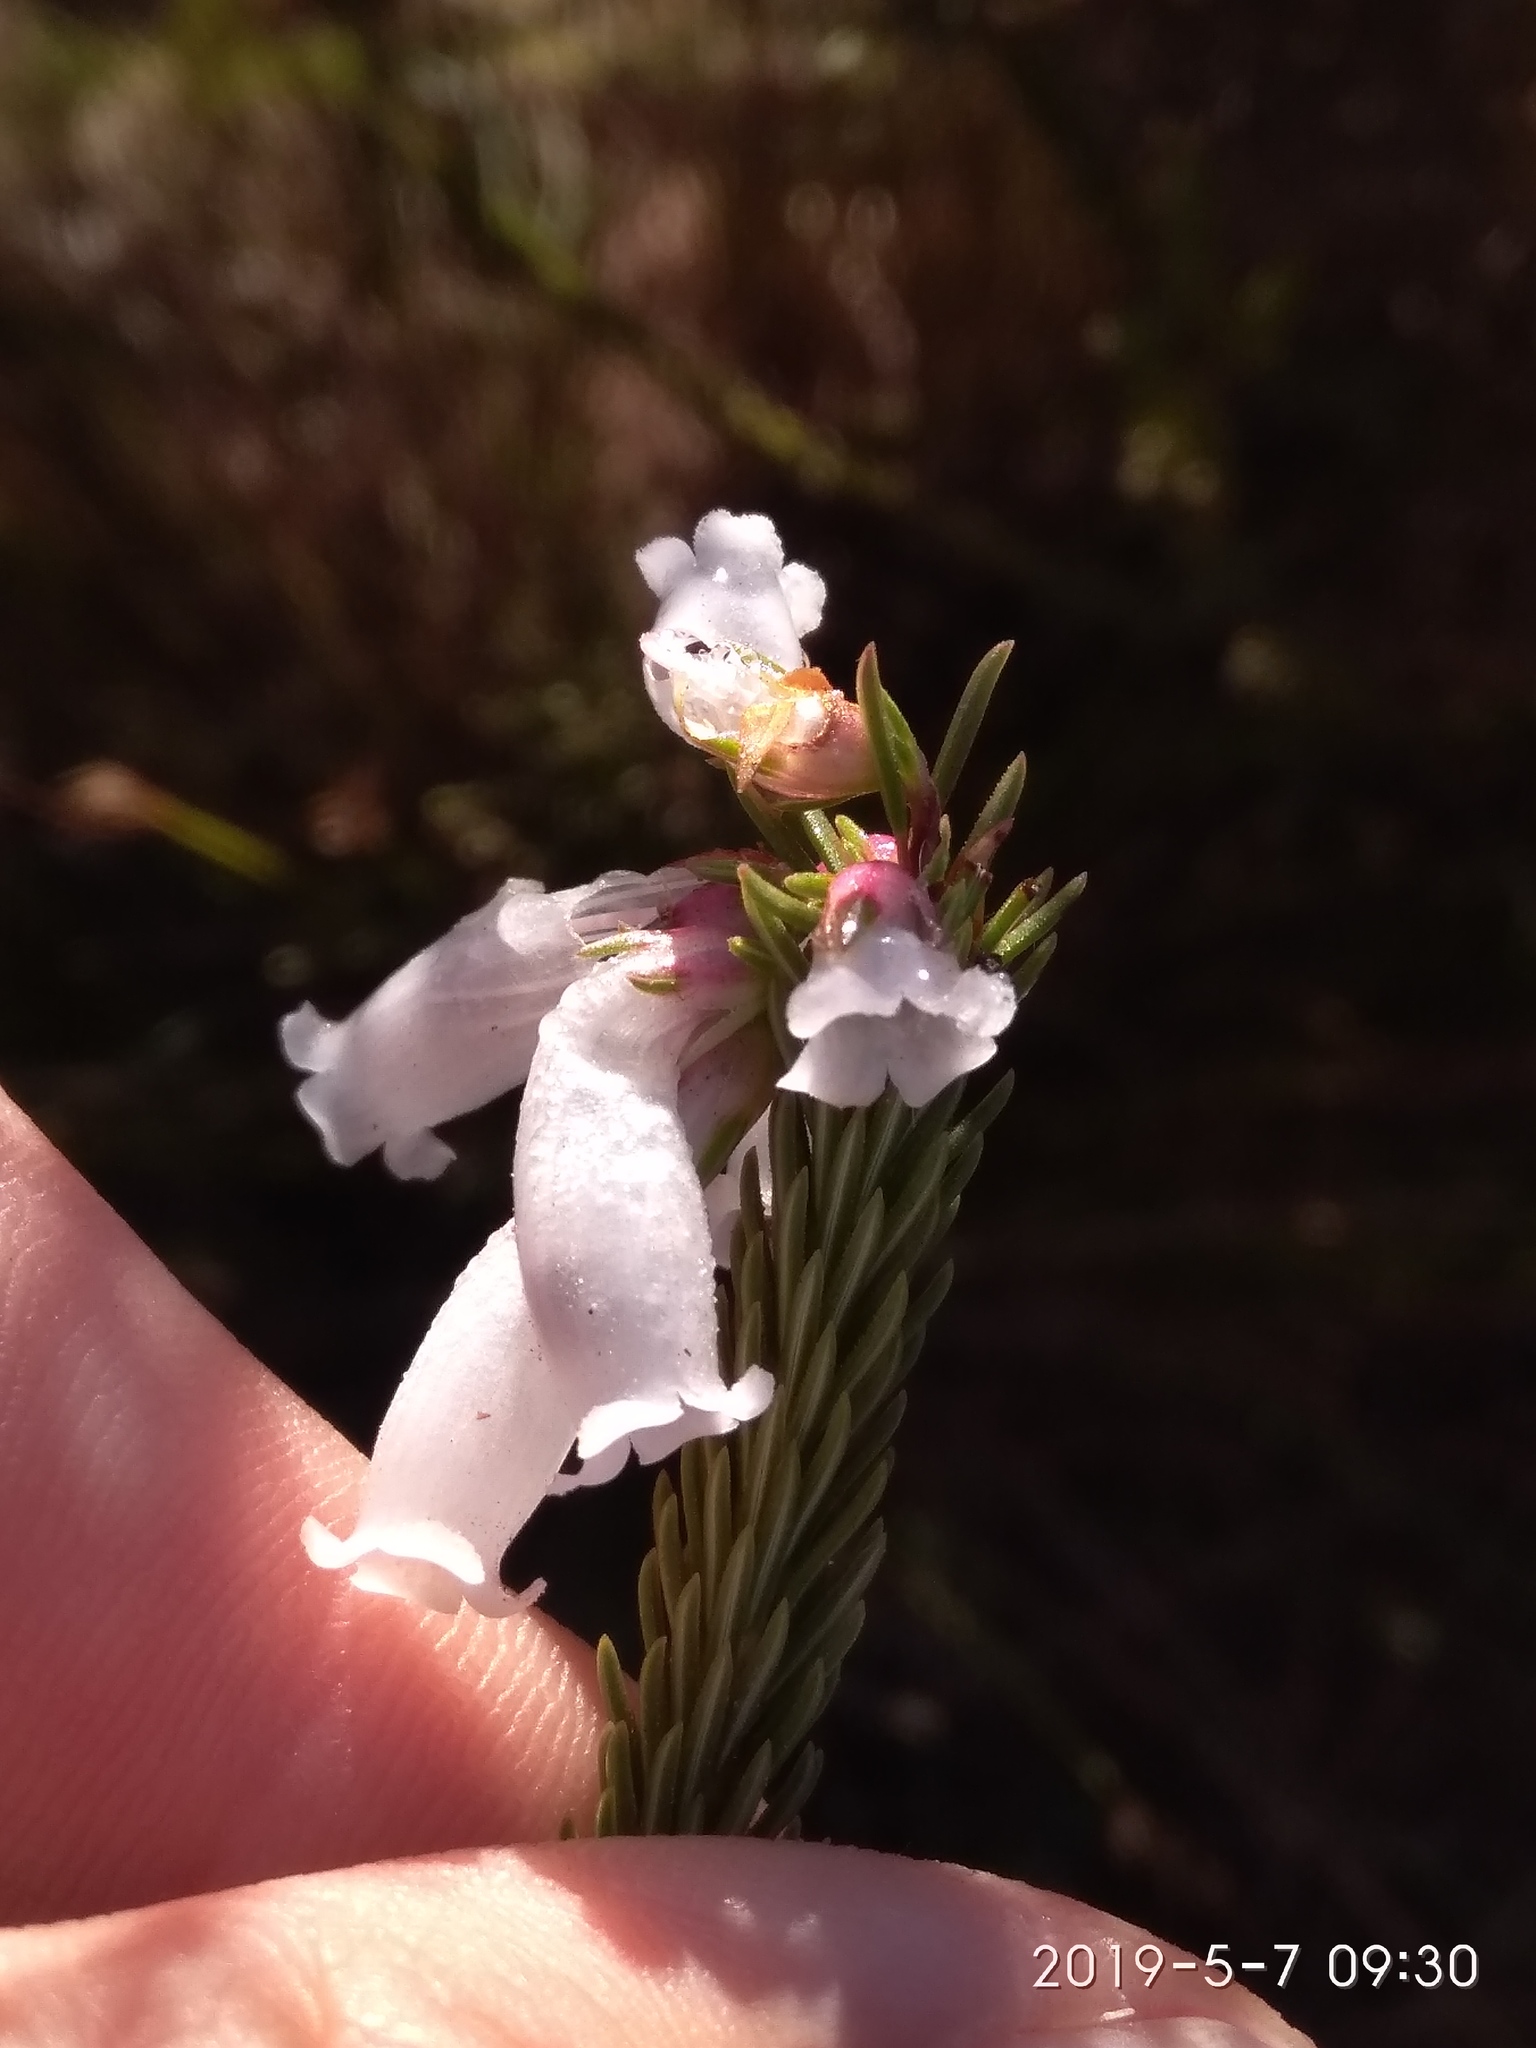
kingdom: Plantae
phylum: Tracheophyta
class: Magnoliopsida
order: Ericales
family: Ericaceae
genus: Erica
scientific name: Erica regia
